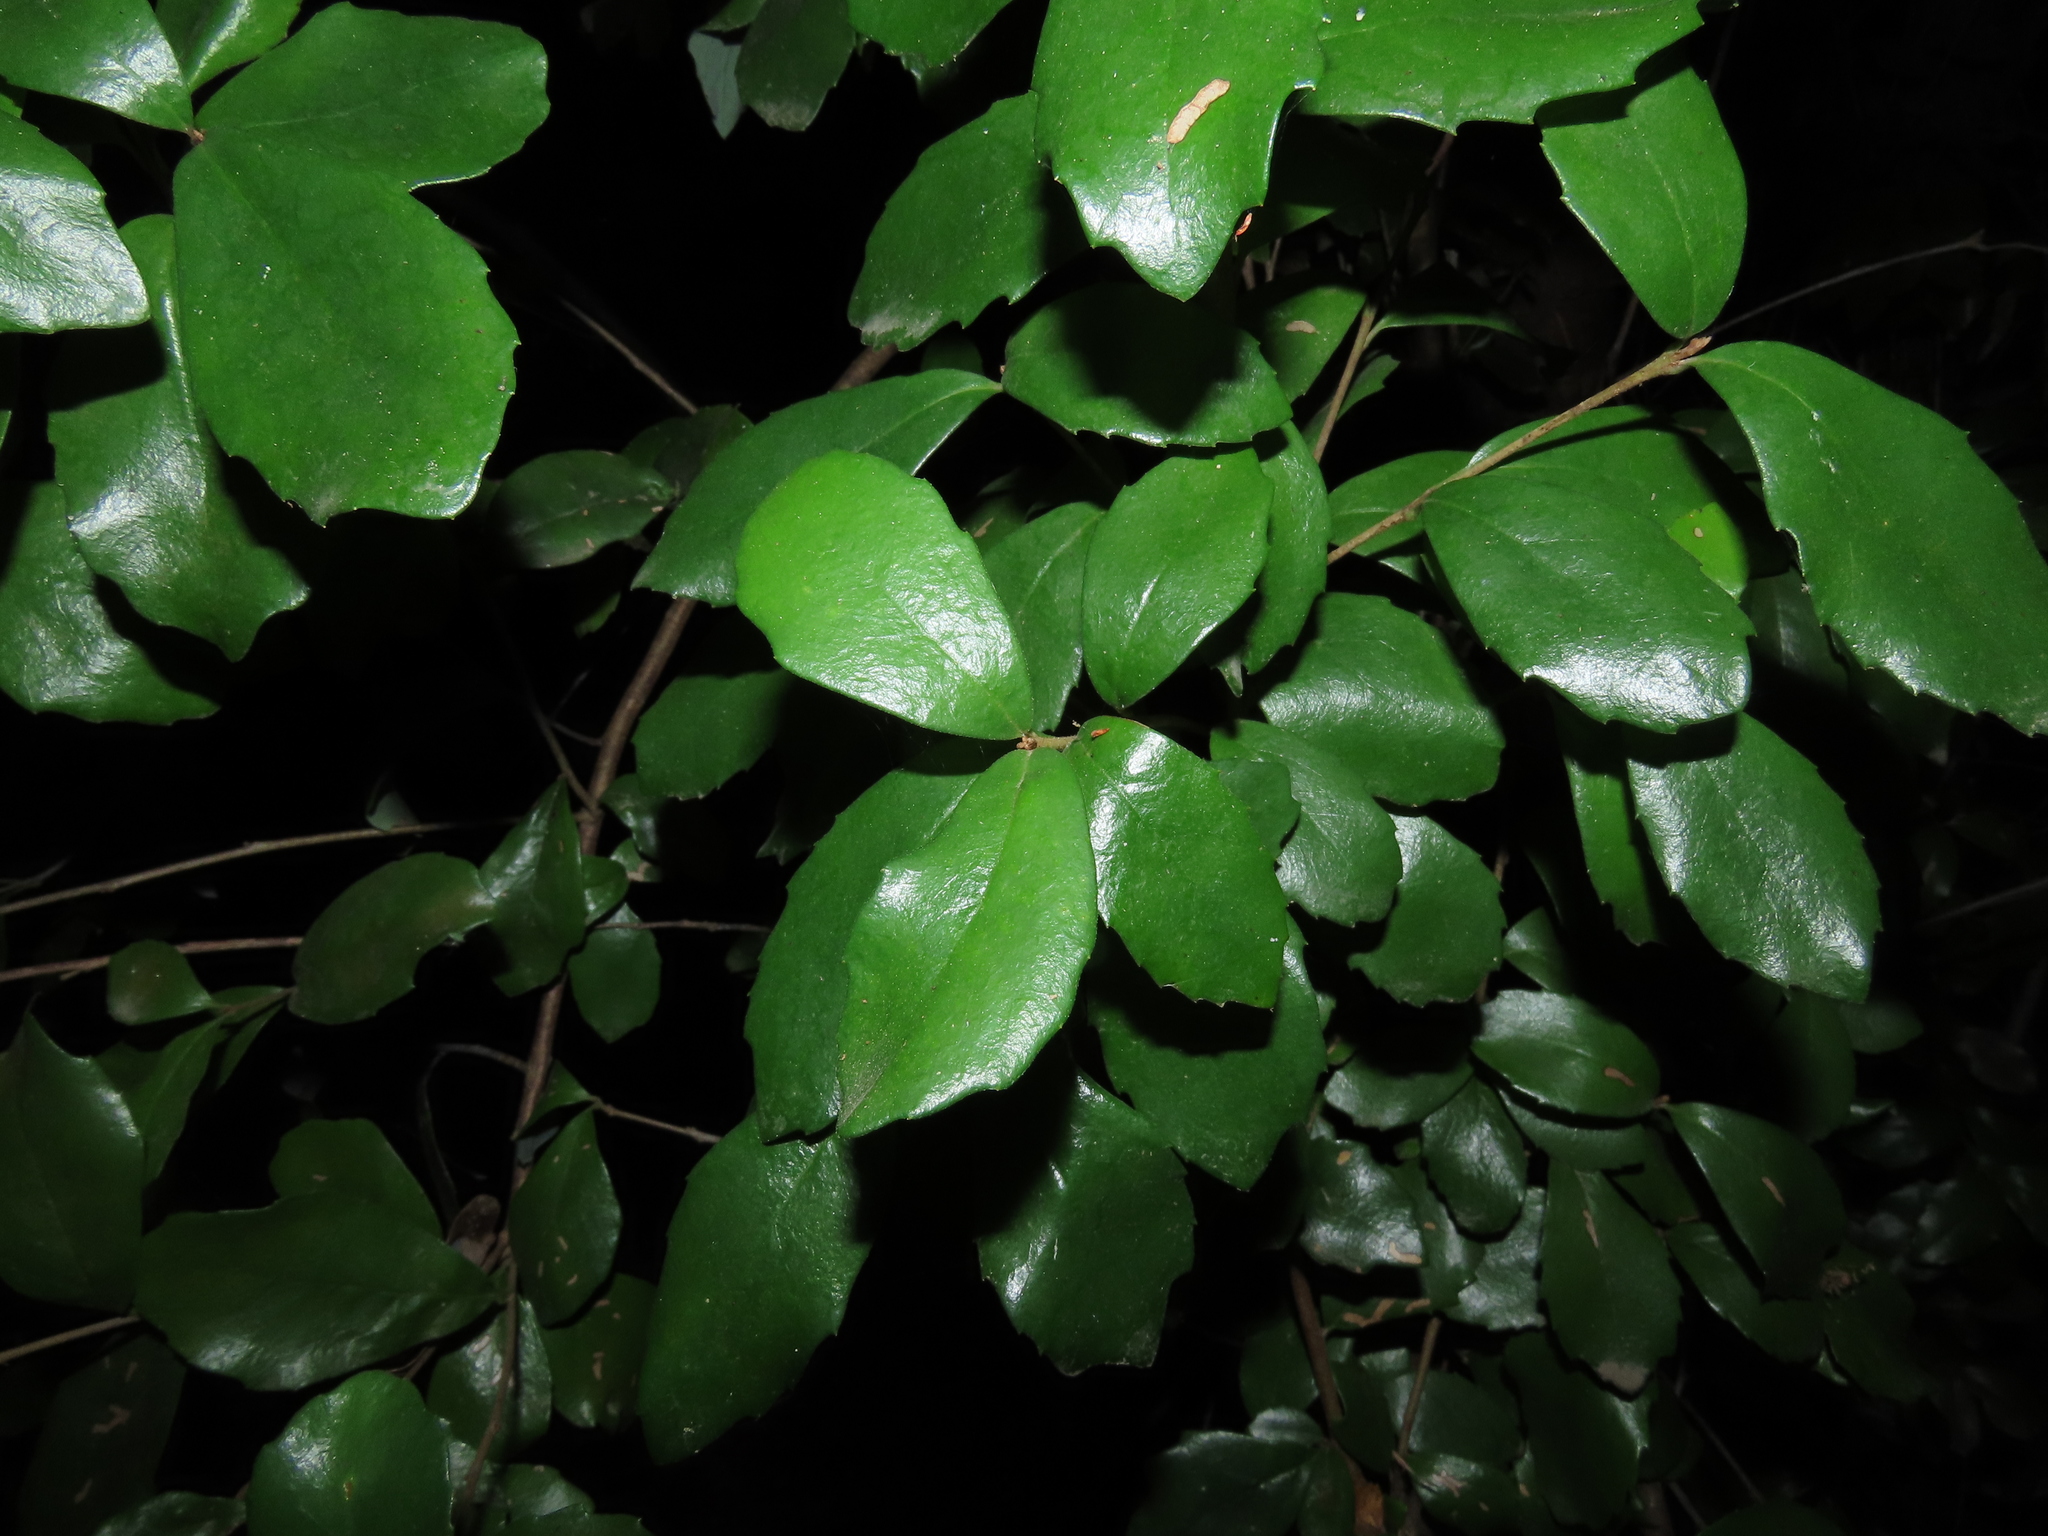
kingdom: Plantae
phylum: Tracheophyta
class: Magnoliopsida
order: Proteales
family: Proteaceae
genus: Lomatia
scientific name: Lomatia dentata
